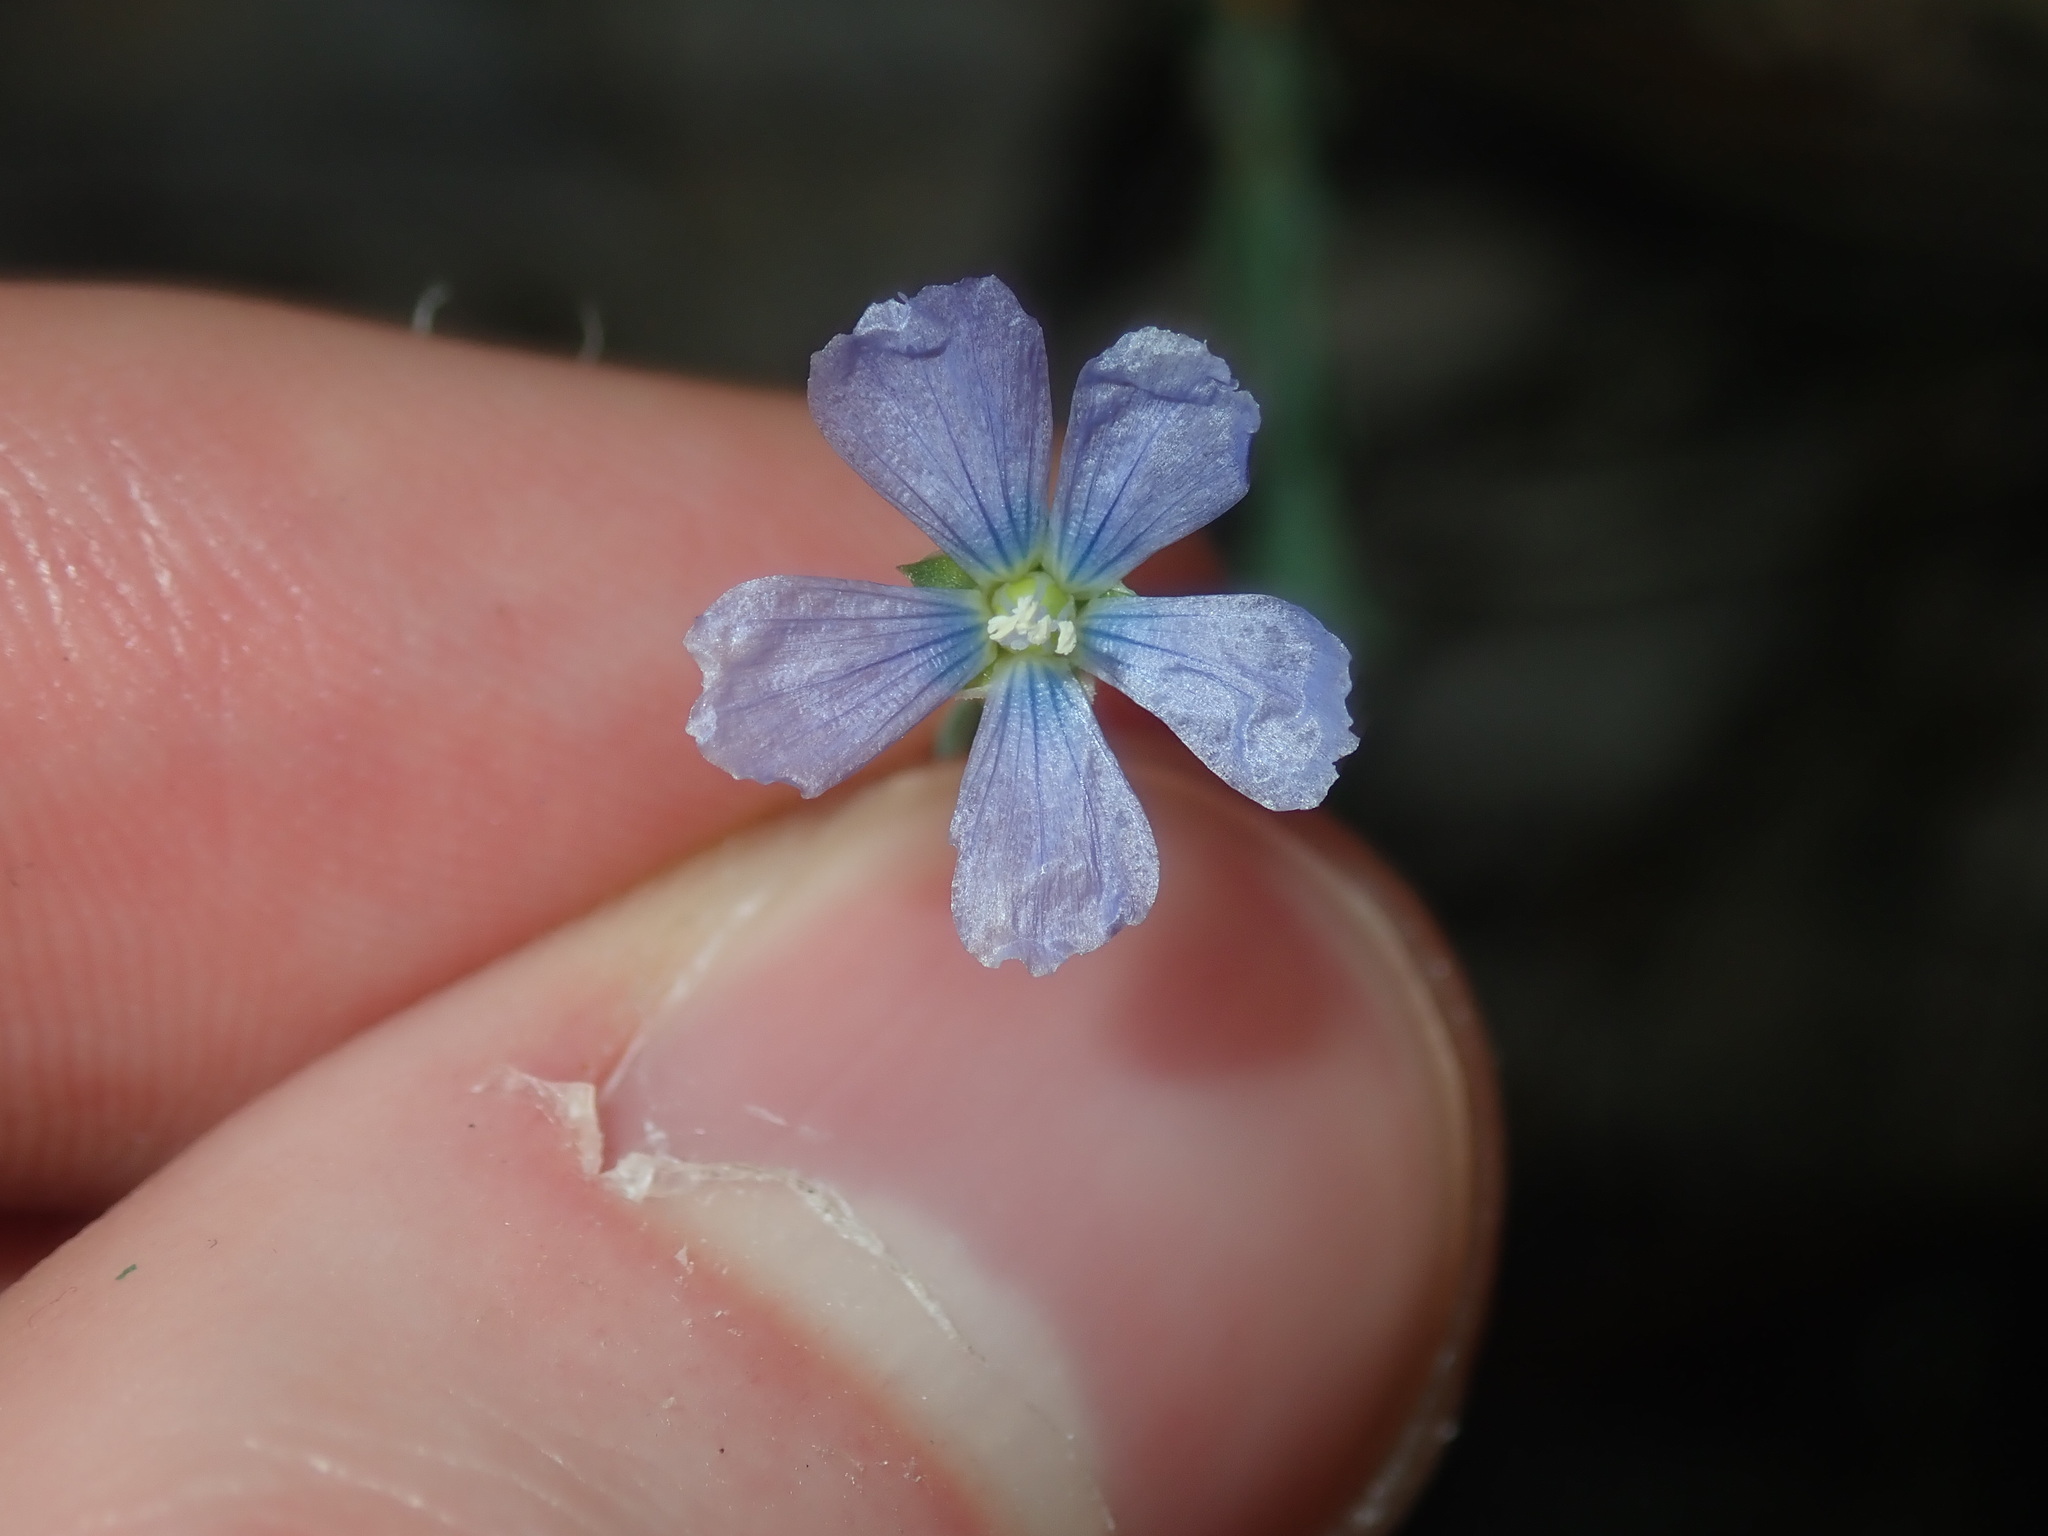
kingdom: Plantae
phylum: Tracheophyta
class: Magnoliopsida
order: Malpighiales
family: Linaceae
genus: Linum
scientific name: Linum marginale
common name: Wild flax
